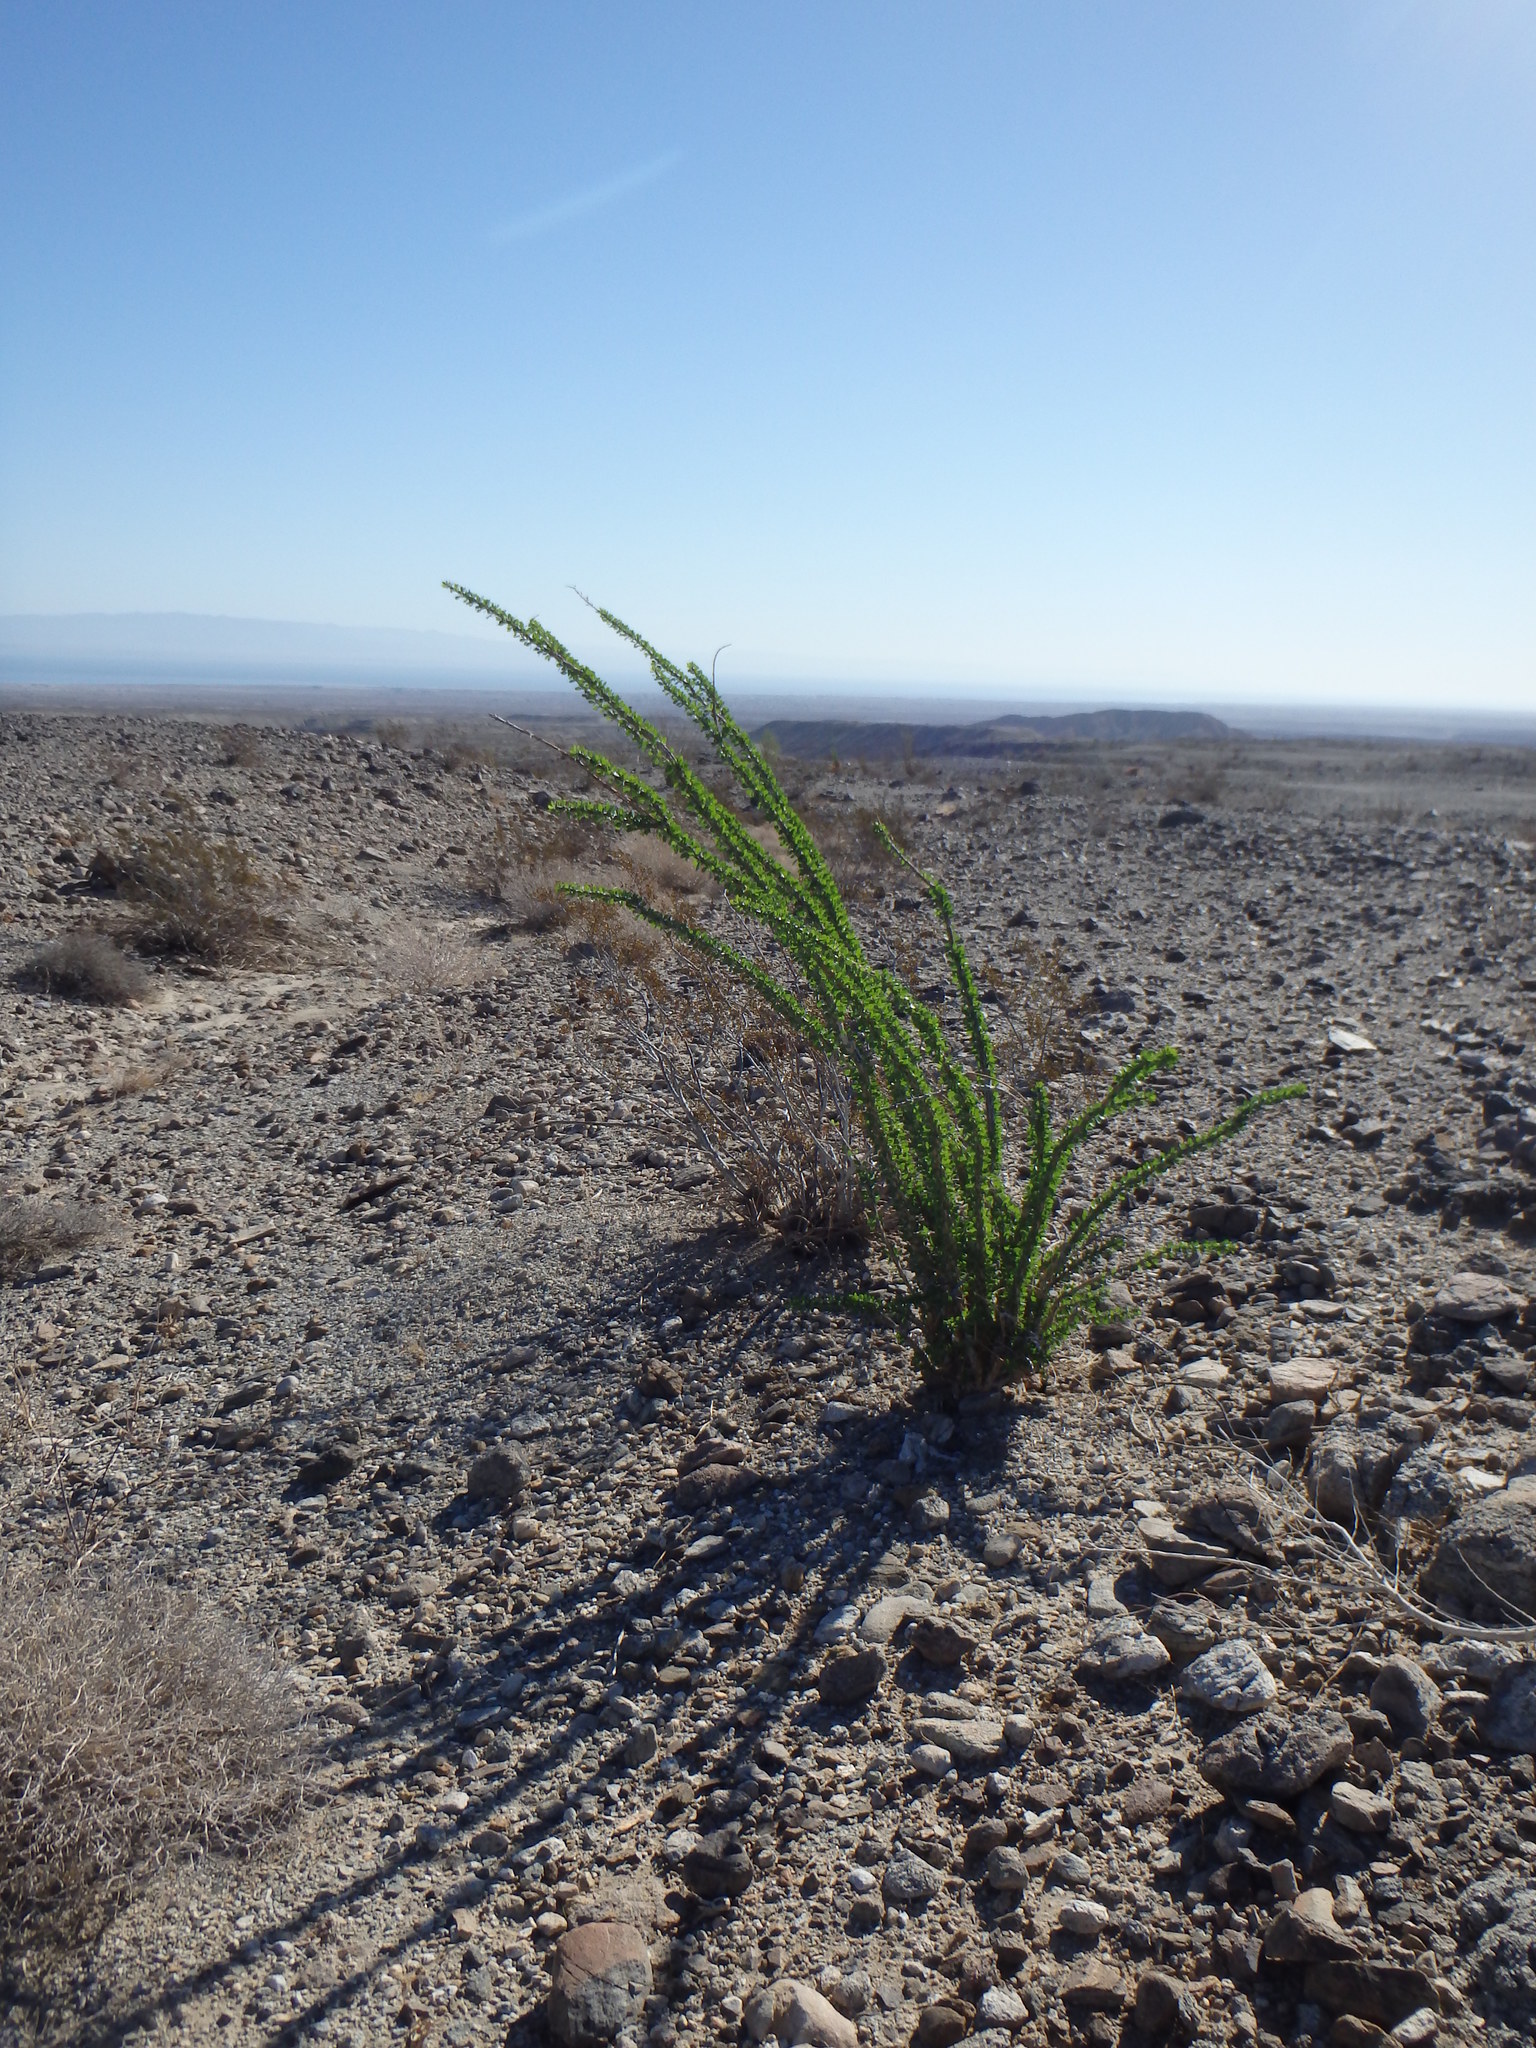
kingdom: Plantae
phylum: Tracheophyta
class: Magnoliopsida
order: Ericales
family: Fouquieriaceae
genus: Fouquieria
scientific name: Fouquieria splendens
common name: Vine-cactus
